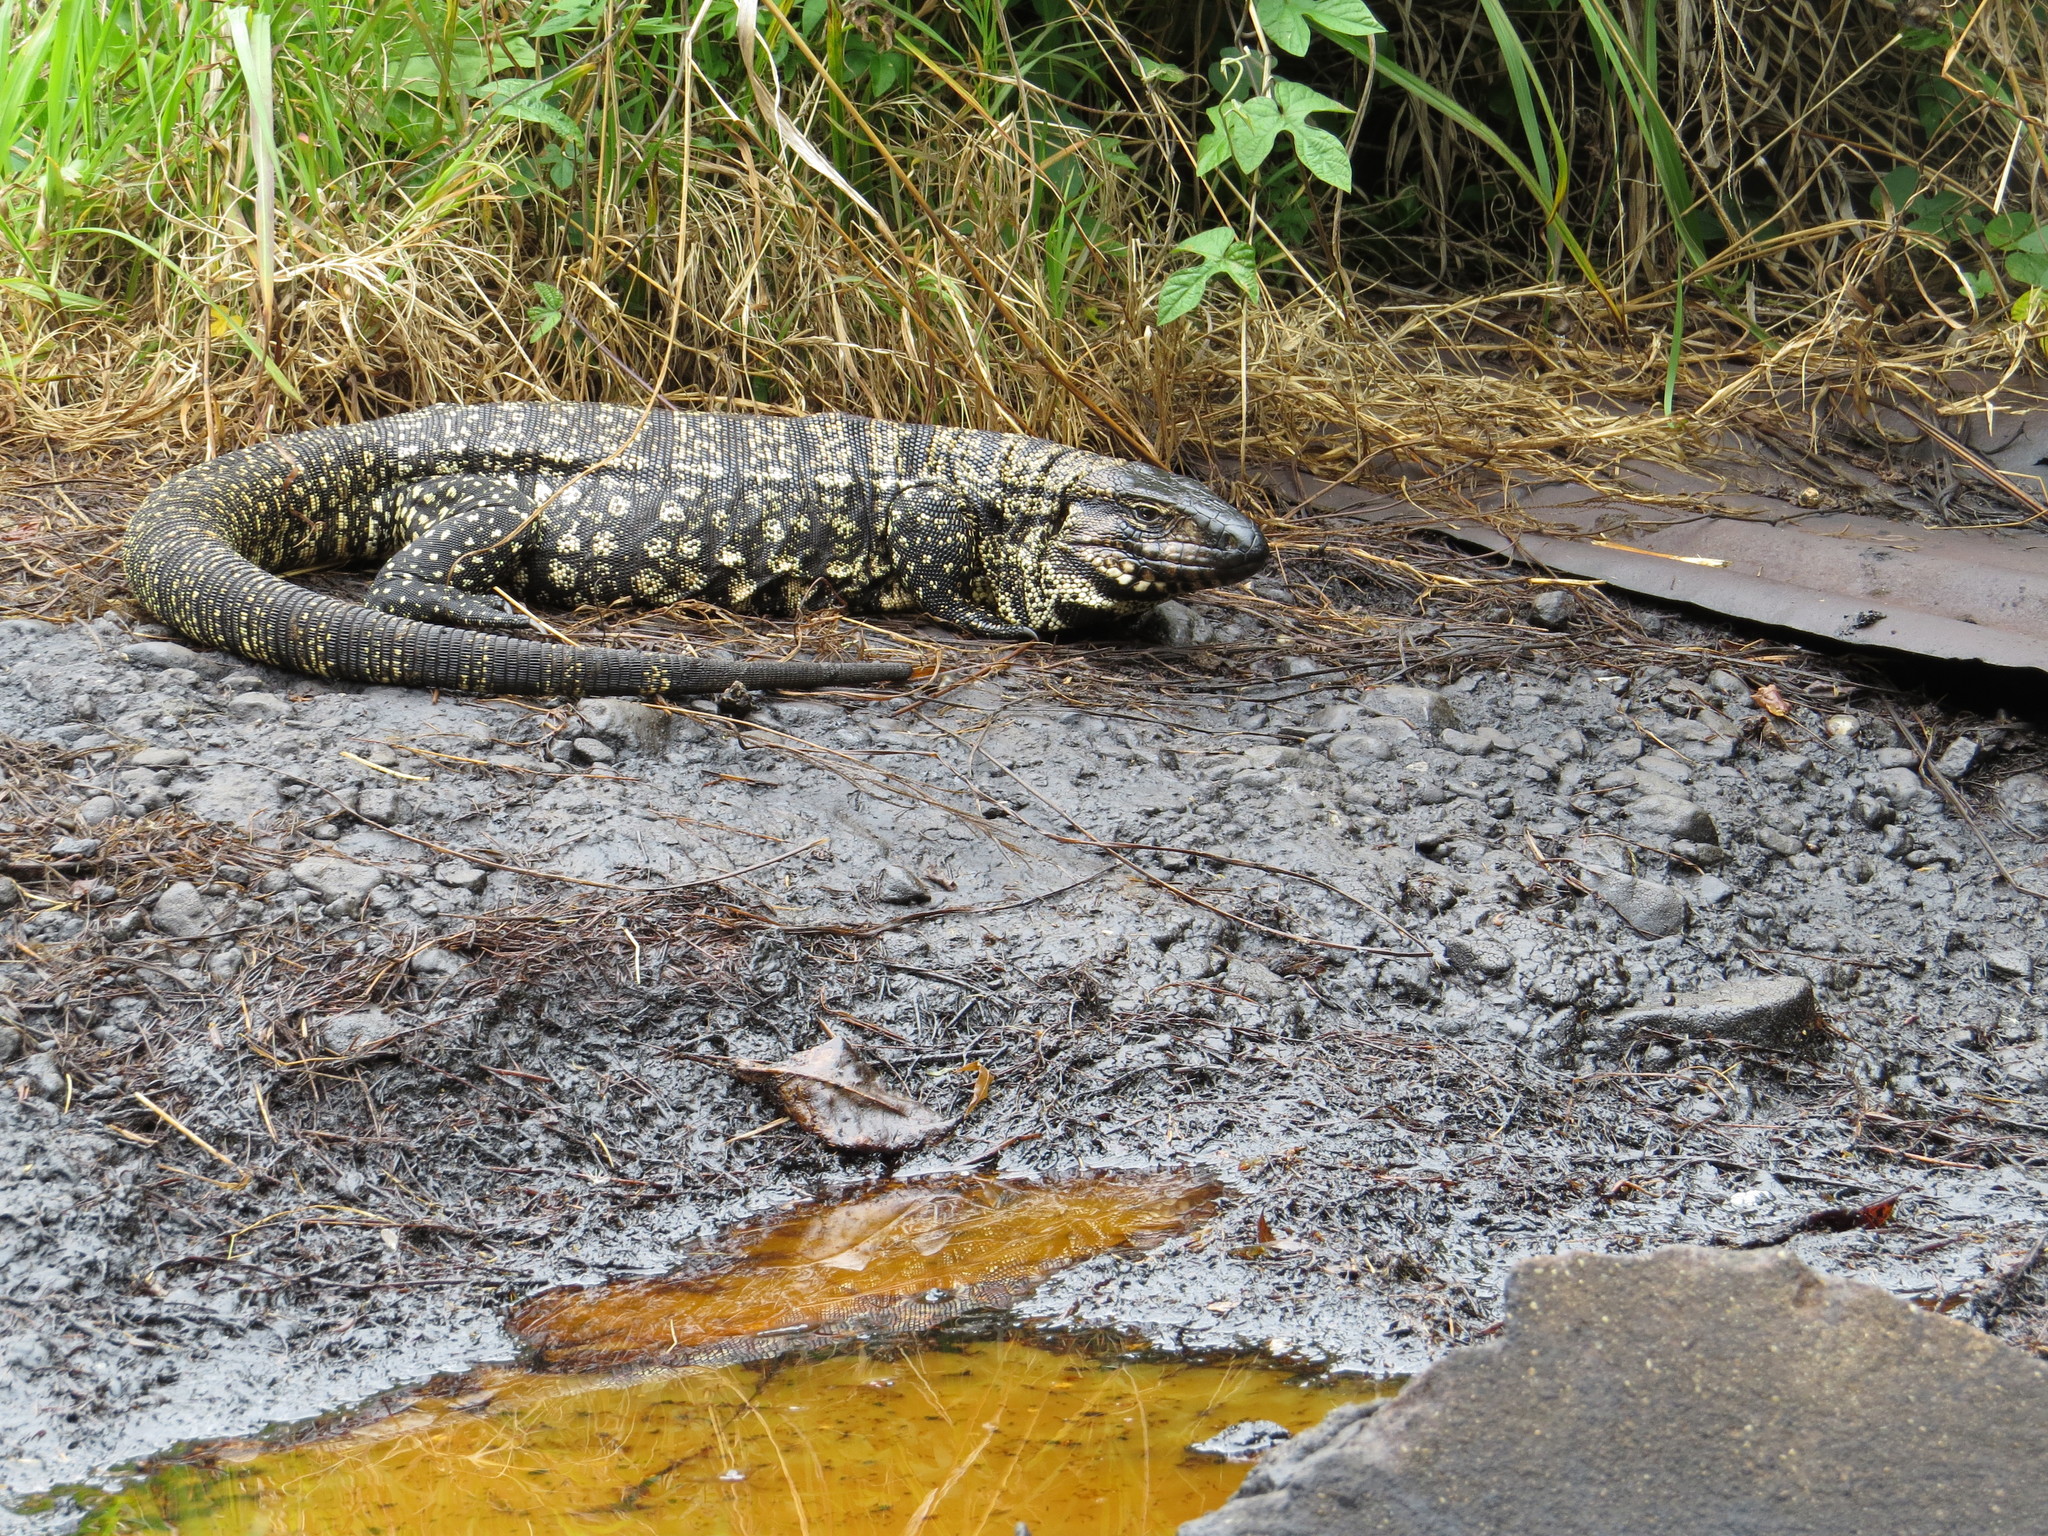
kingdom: Animalia
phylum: Chordata
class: Squamata
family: Teiidae
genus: Salvator
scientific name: Salvator merianae
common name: Argentine black and white tegu
